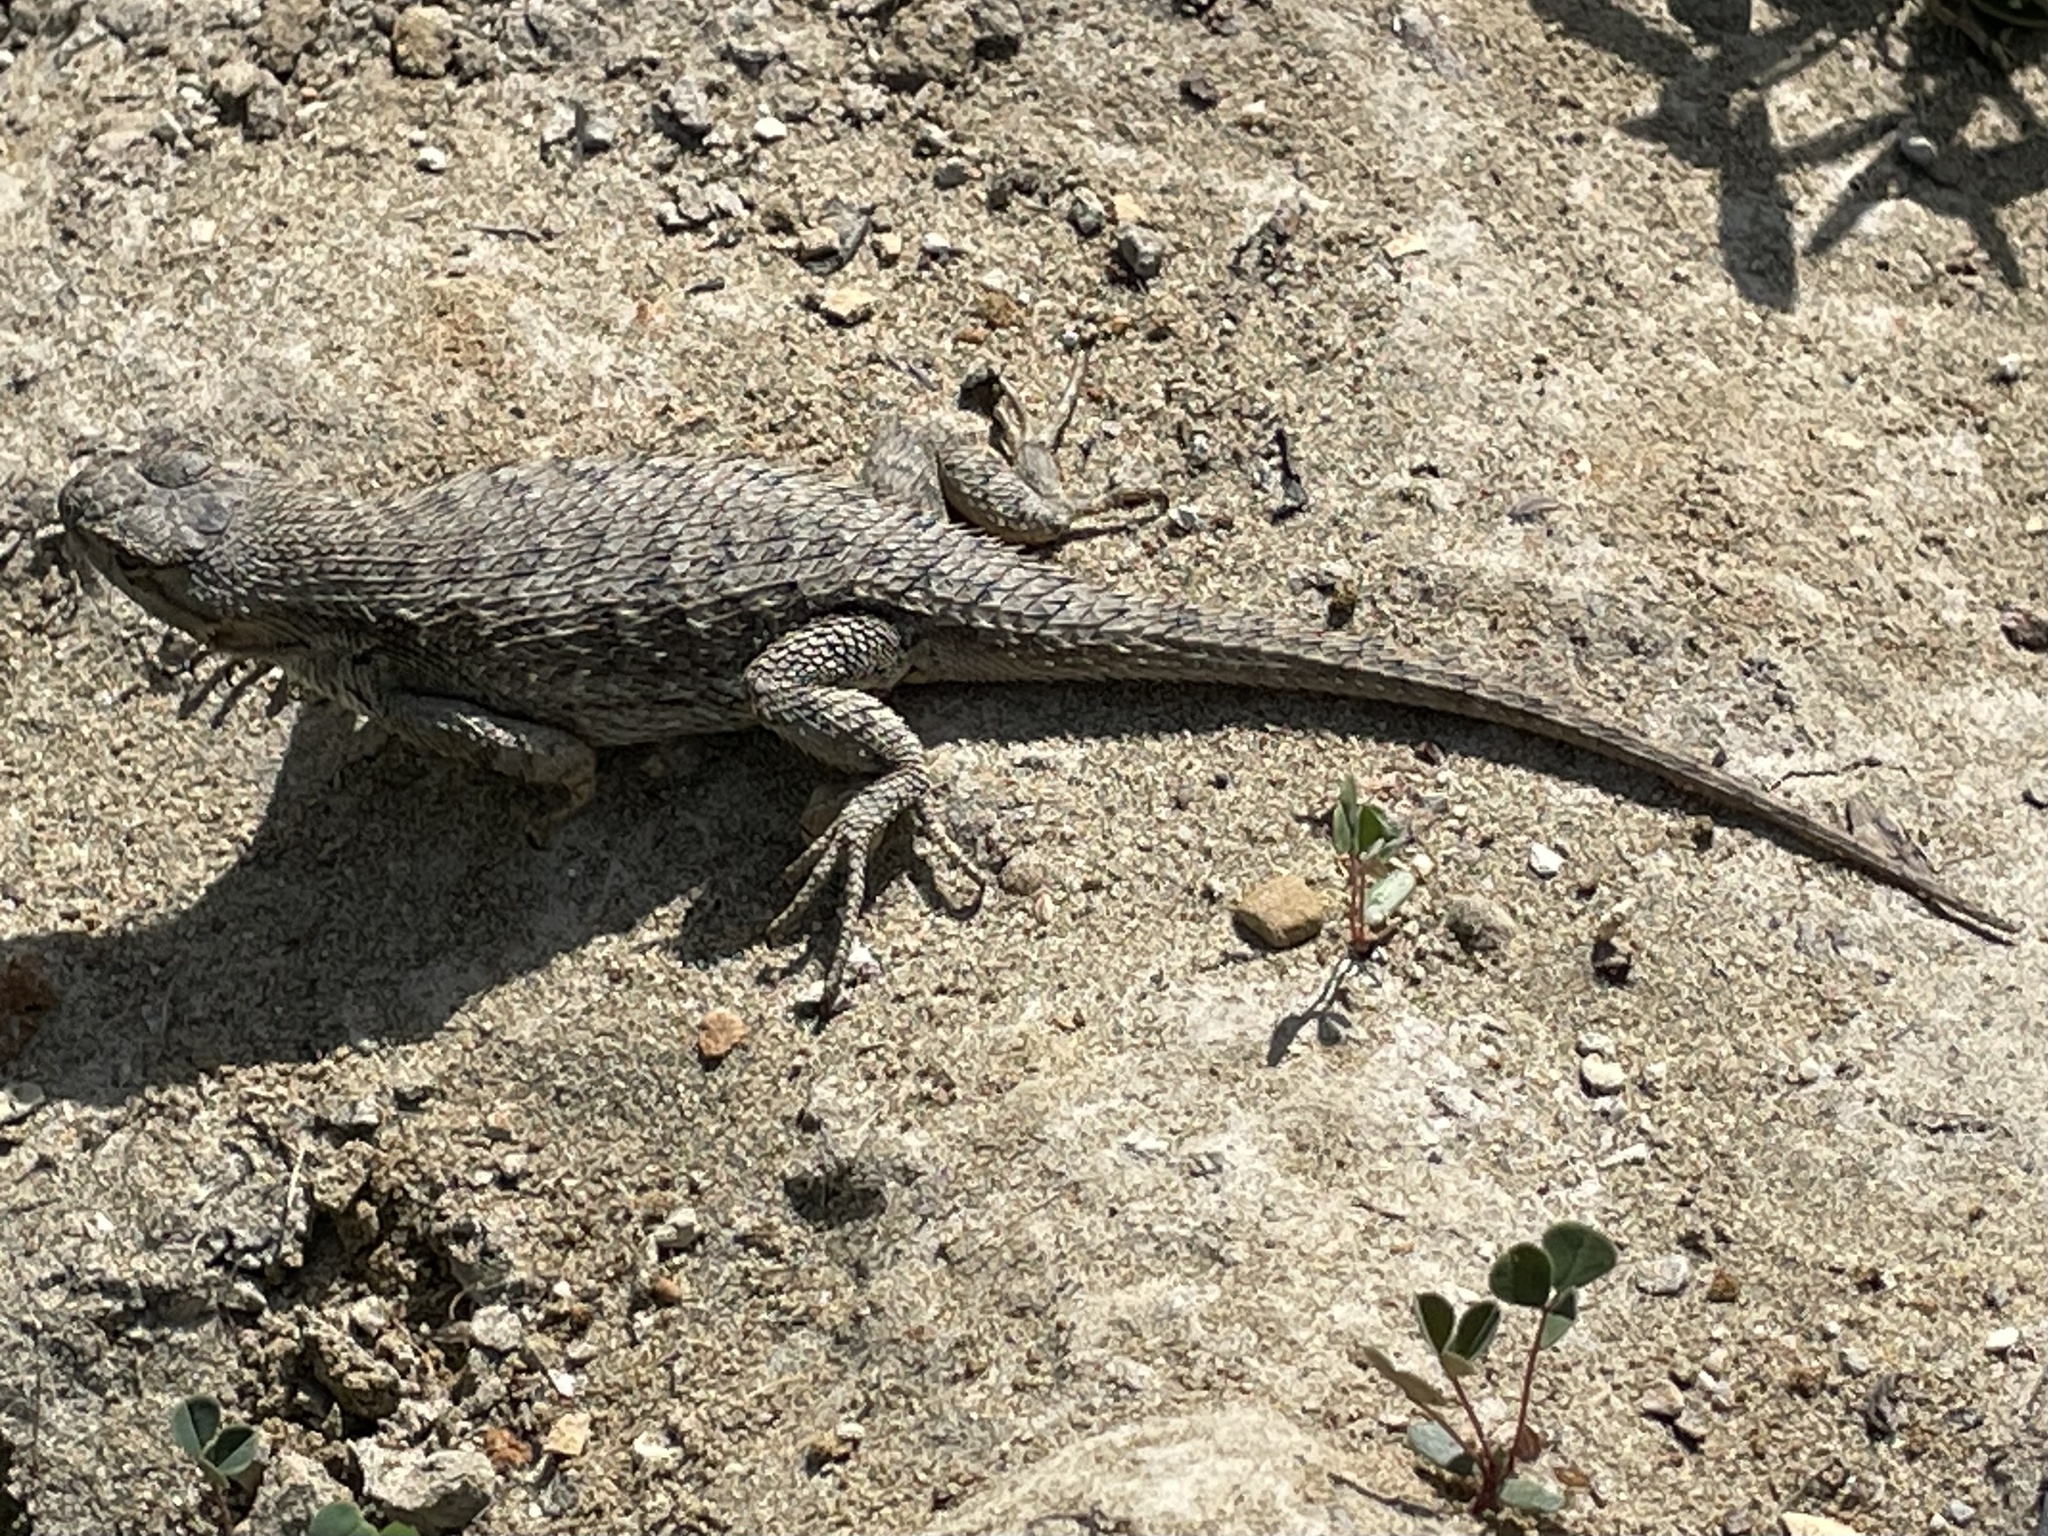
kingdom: Animalia
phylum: Chordata
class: Squamata
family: Phrynosomatidae
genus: Sceloporus
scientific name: Sceloporus occidentalis
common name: Western fence lizard
